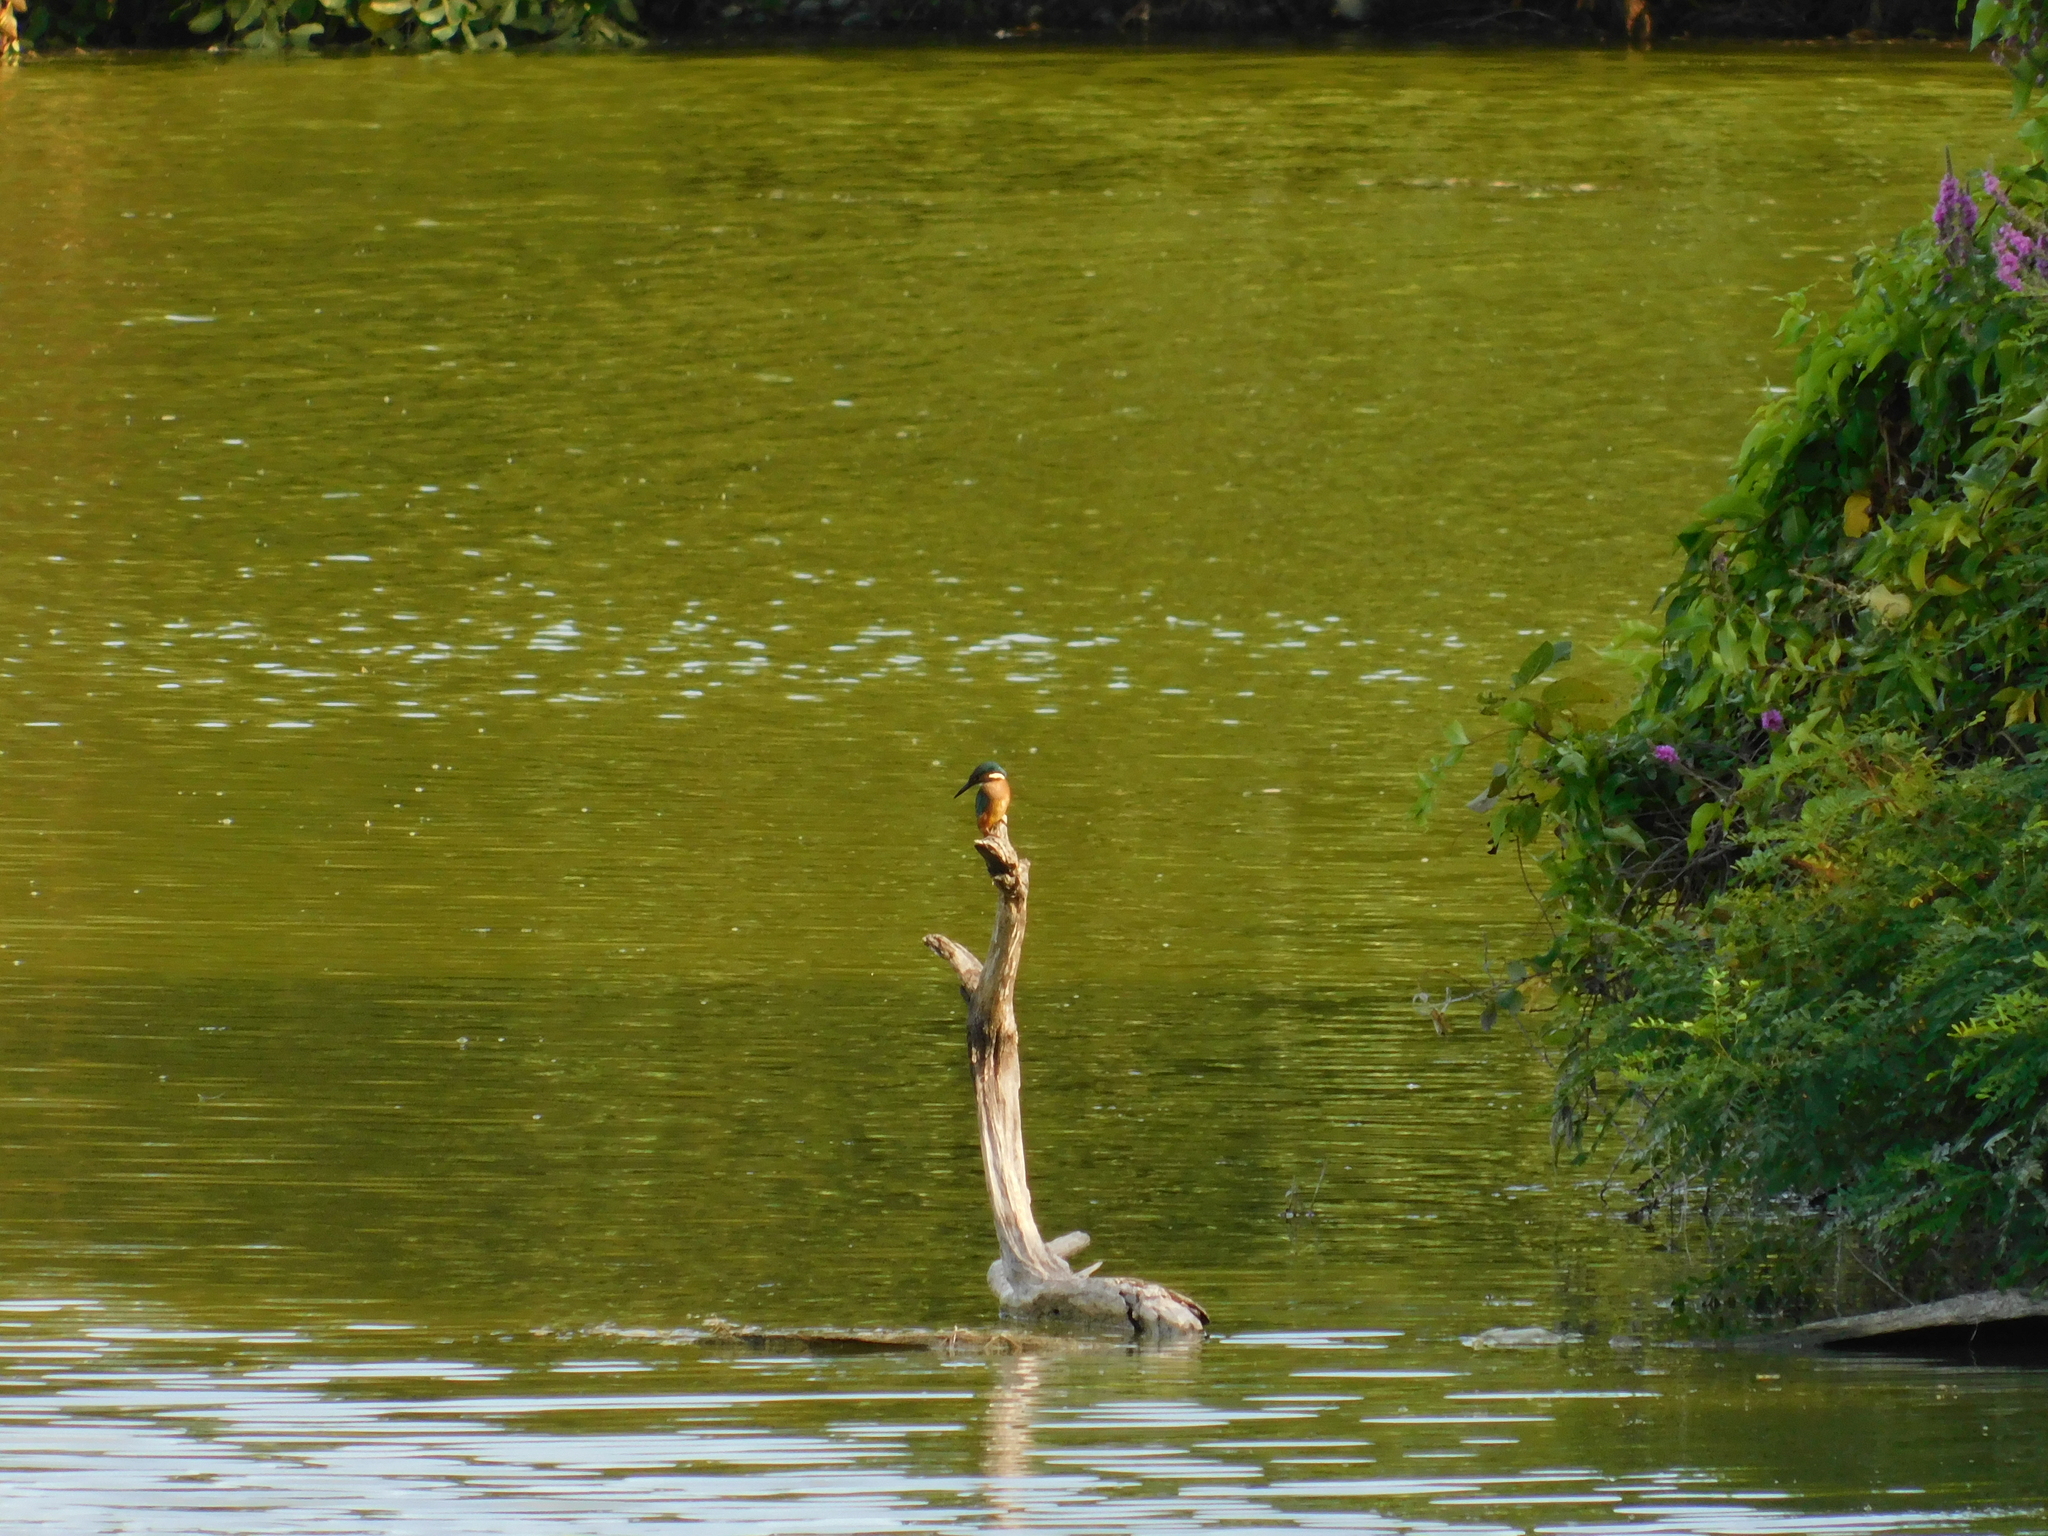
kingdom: Animalia
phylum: Chordata
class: Aves
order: Coraciiformes
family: Alcedinidae
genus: Alcedo
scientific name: Alcedo atthis
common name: Common kingfisher
